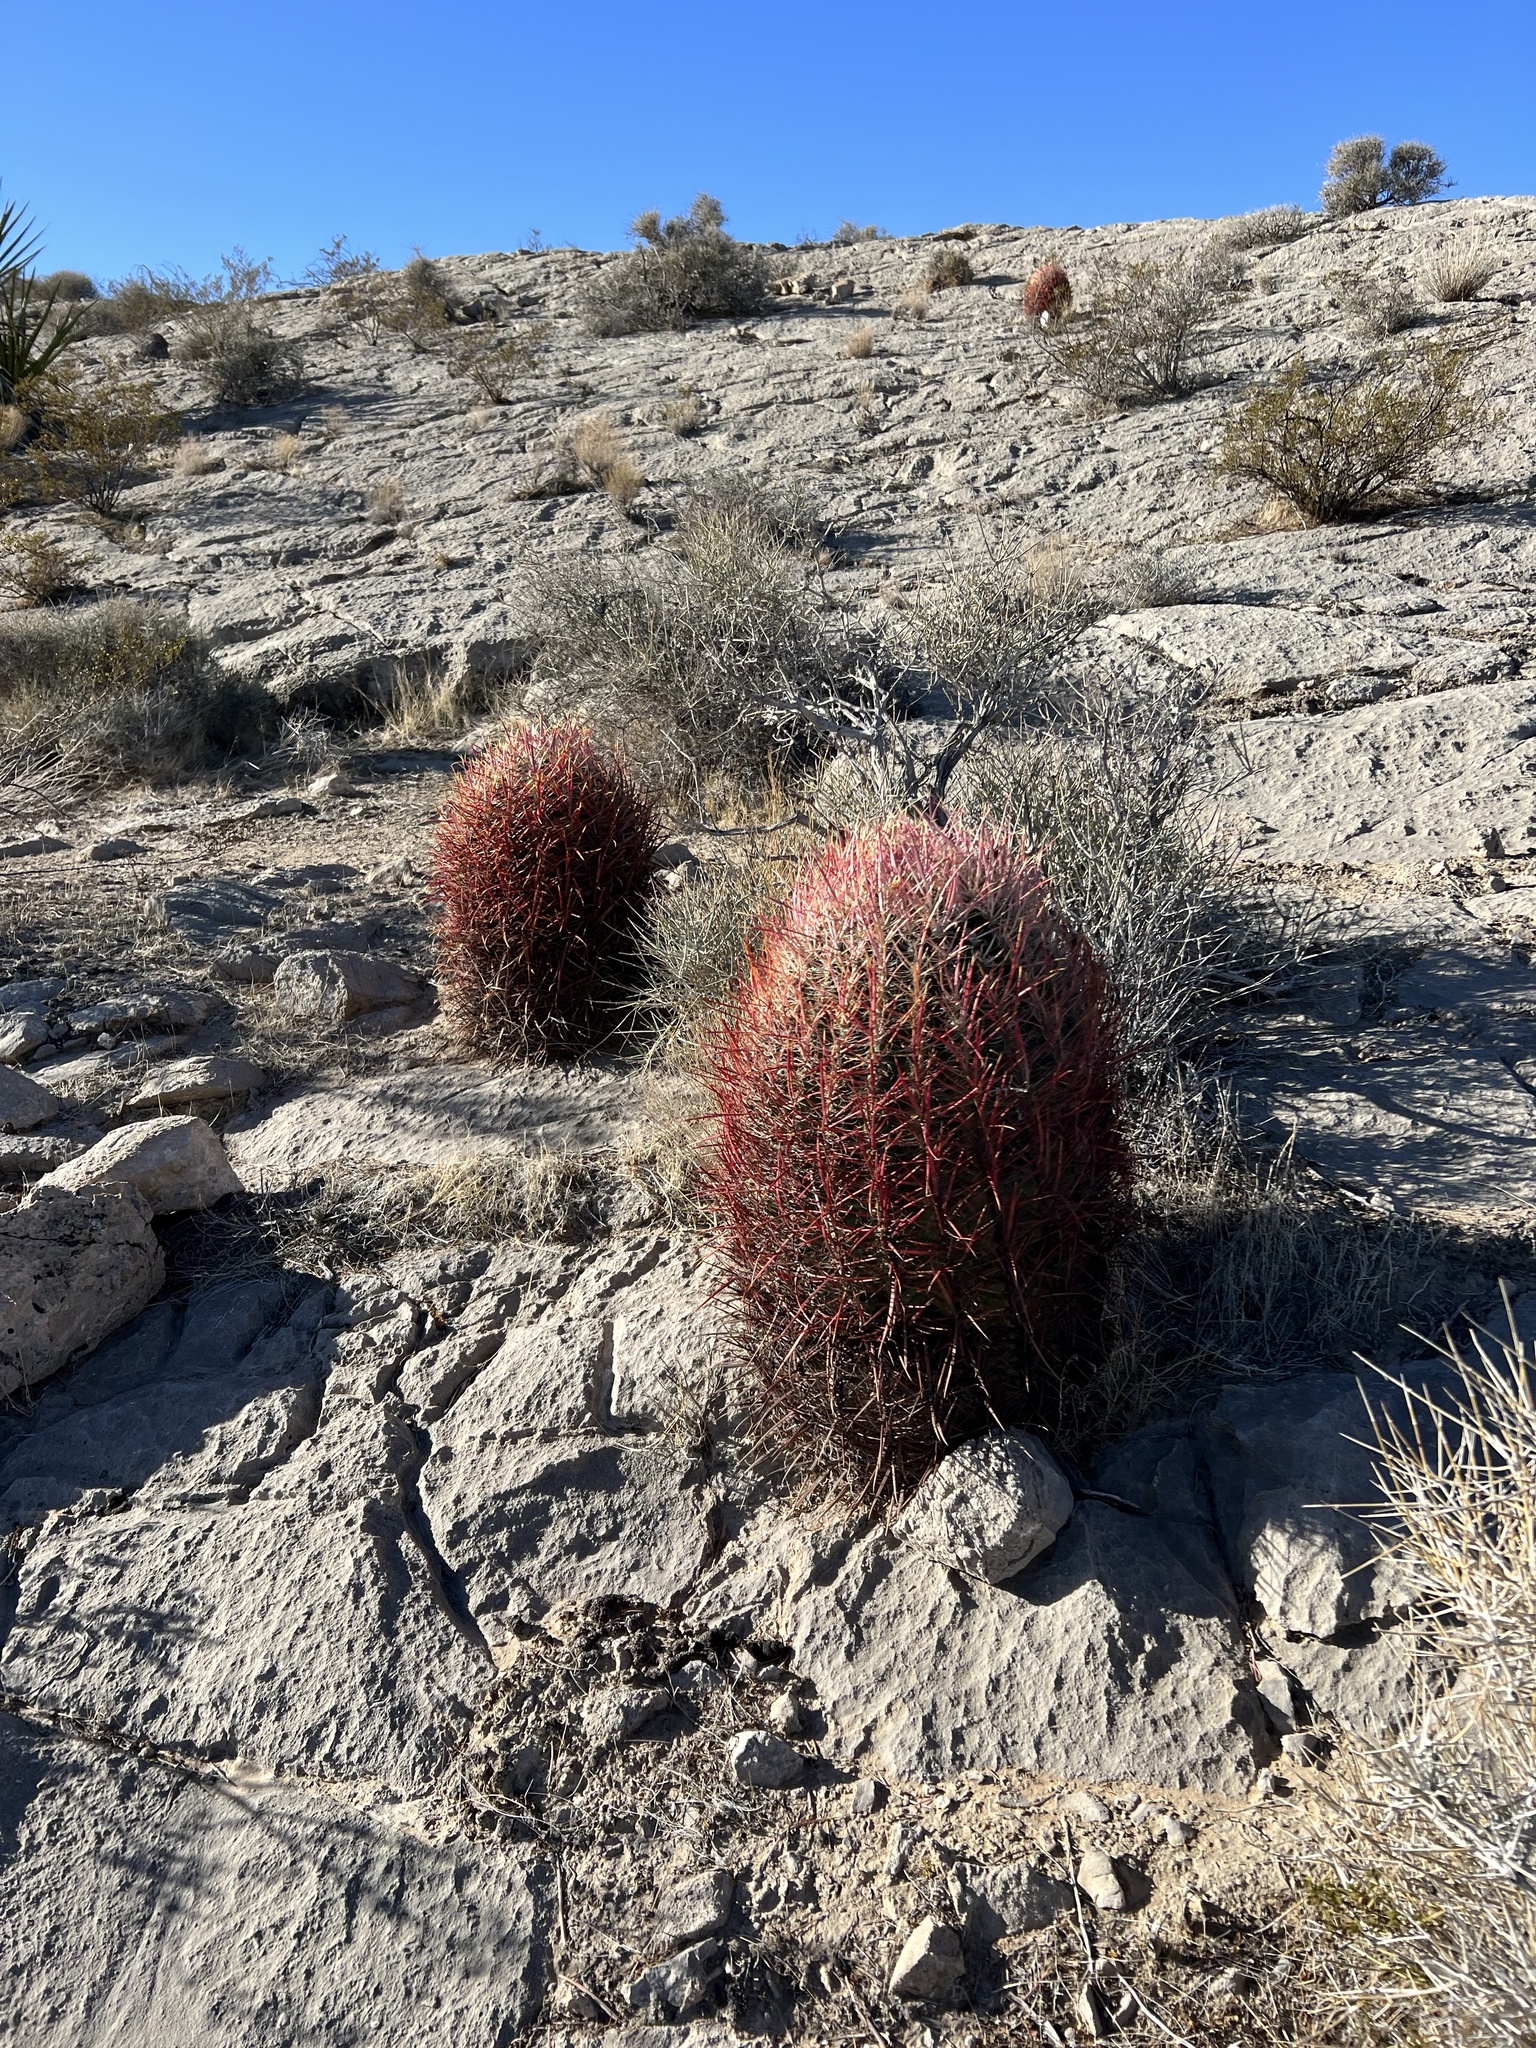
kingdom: Plantae
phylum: Tracheophyta
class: Magnoliopsida
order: Caryophyllales
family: Cactaceae
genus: Ferocactus
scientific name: Ferocactus cylindraceus
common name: California barrel cactus
